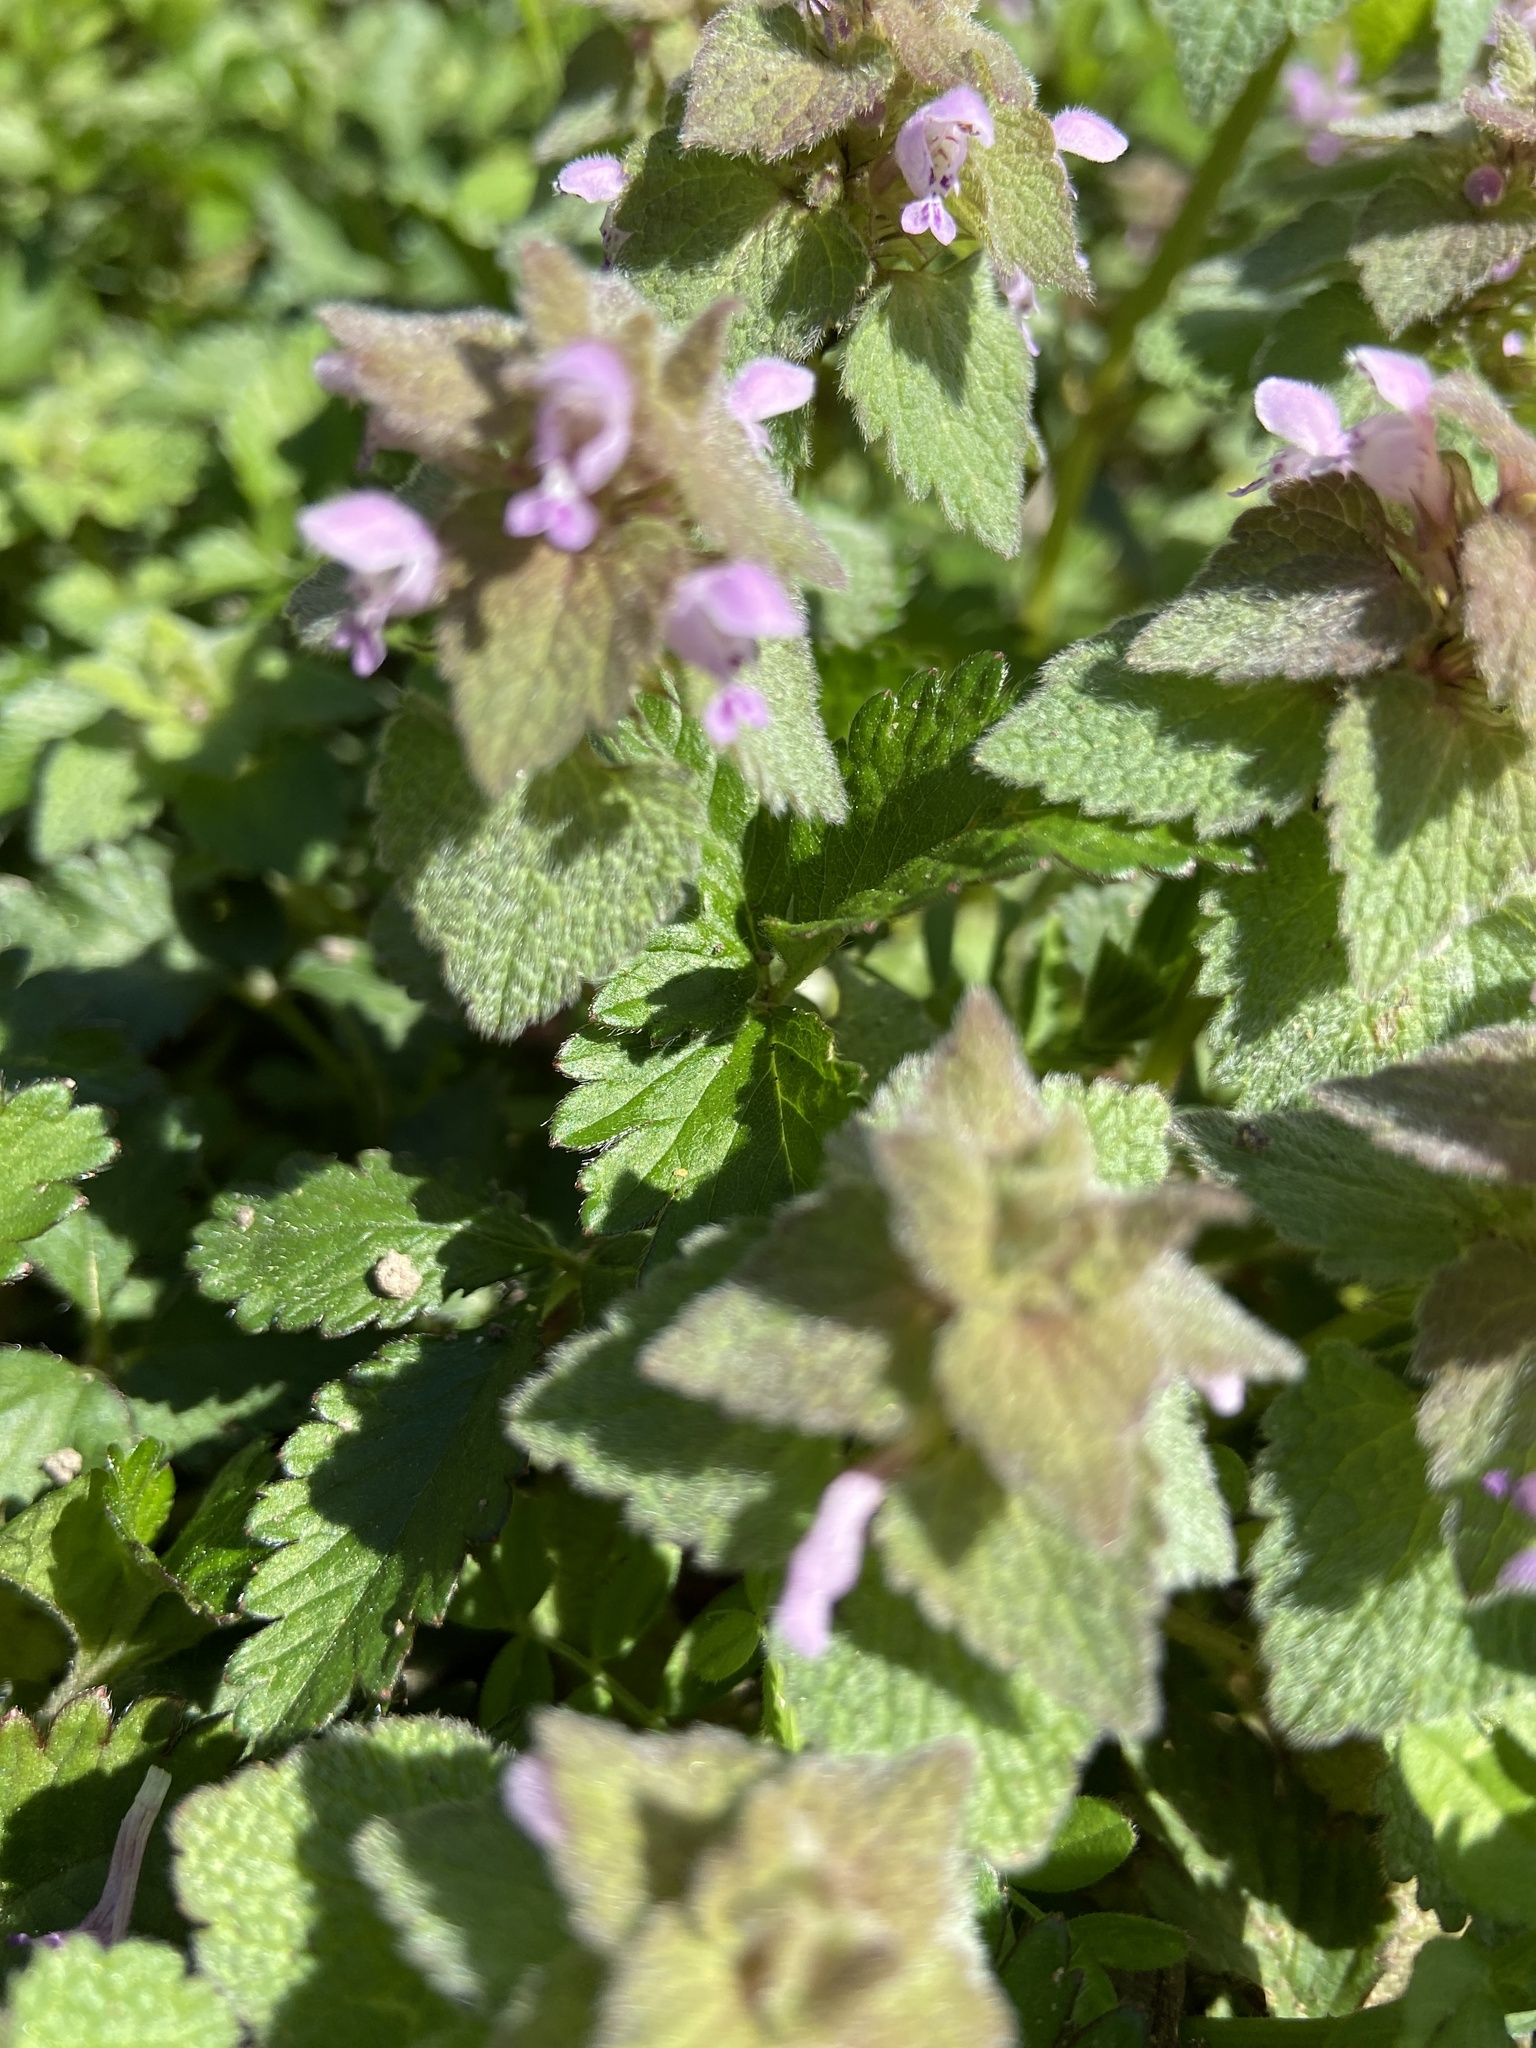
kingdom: Plantae
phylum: Tracheophyta
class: Magnoliopsida
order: Lamiales
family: Lamiaceae
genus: Lamium
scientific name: Lamium purpureum
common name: Red dead-nettle
